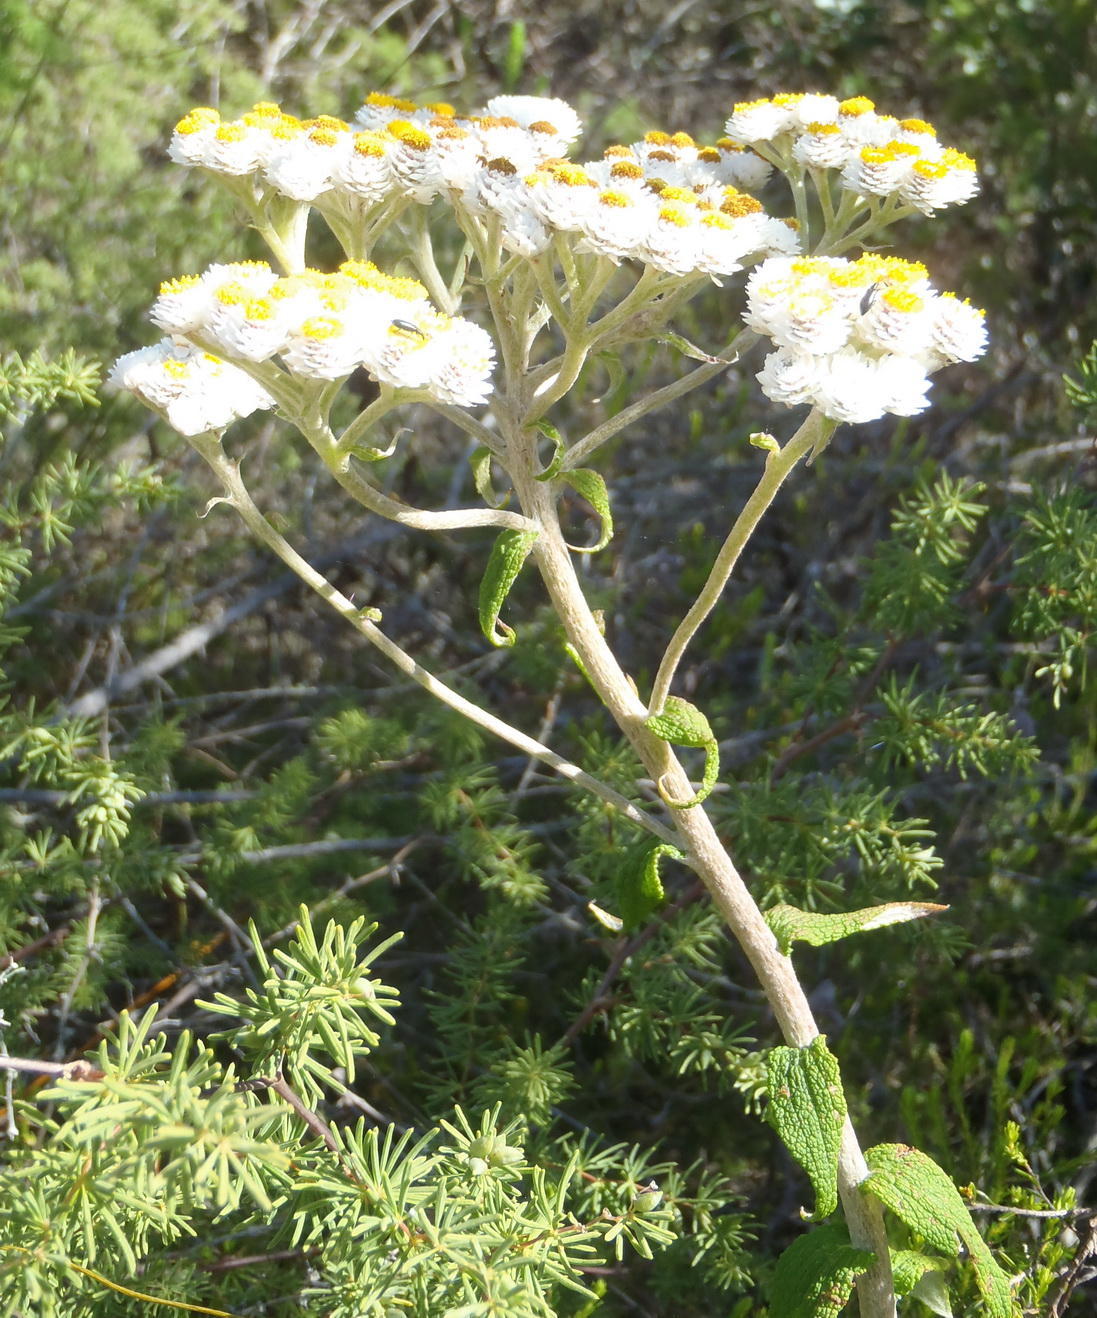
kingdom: Plantae
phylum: Tracheophyta
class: Magnoliopsida
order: Asterales
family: Asteraceae
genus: Helichrysum
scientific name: Helichrysum felinum
